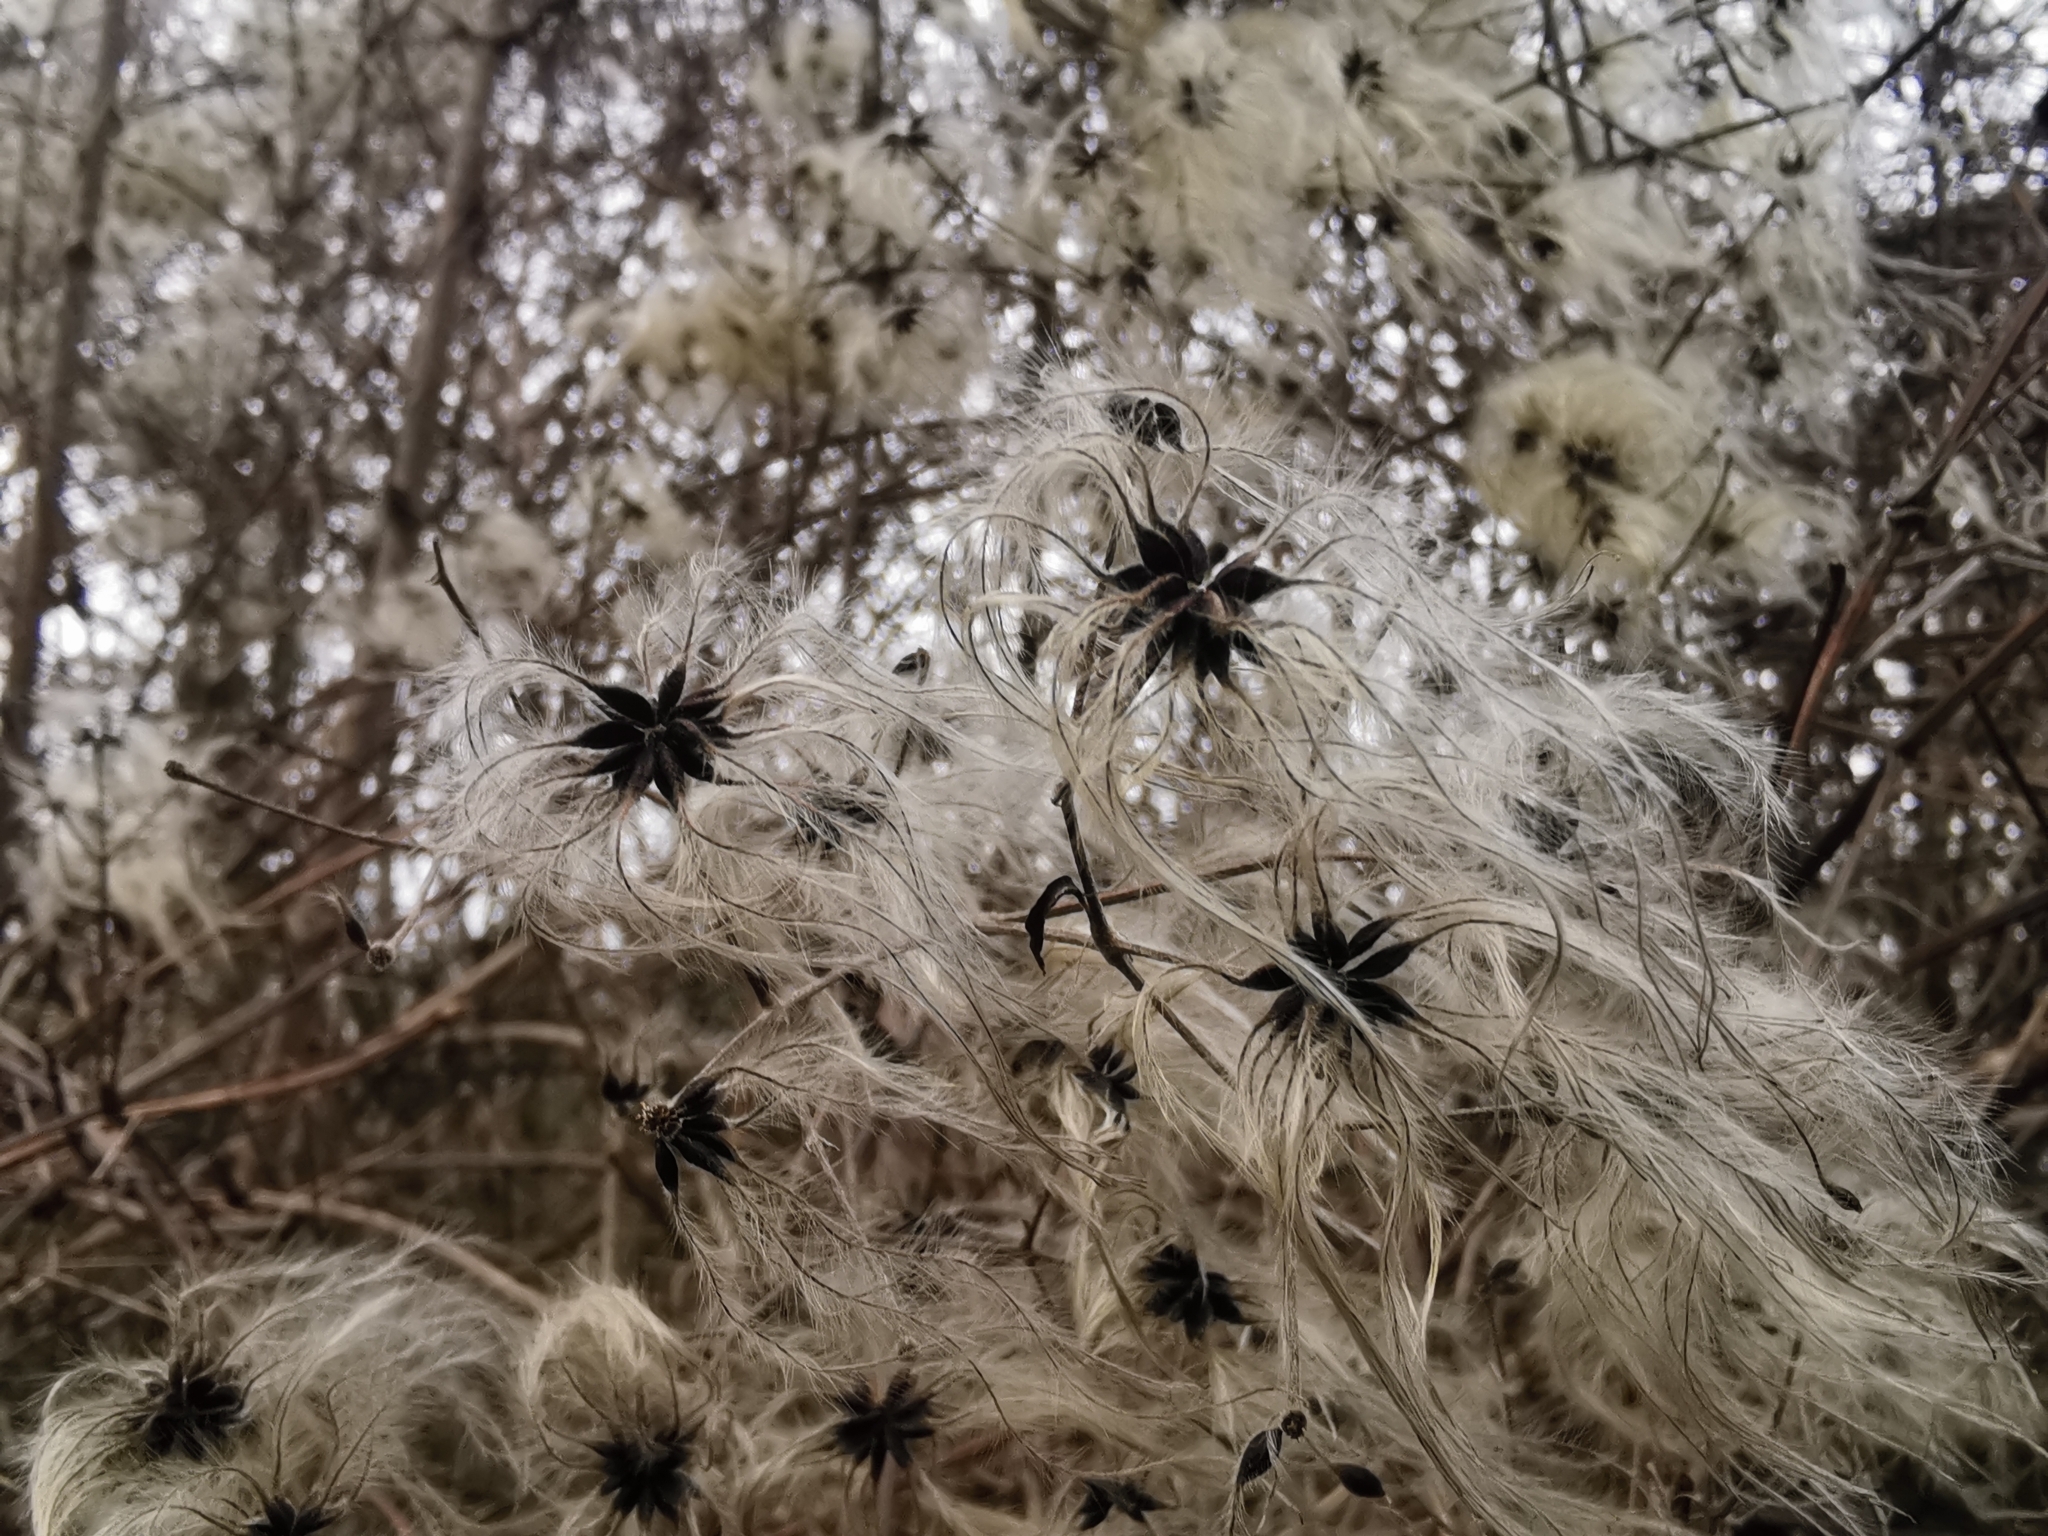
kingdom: Plantae
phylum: Tracheophyta
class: Magnoliopsida
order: Ranunculales
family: Ranunculaceae
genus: Clematis
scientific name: Clematis vitalba
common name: Evergreen clematis
